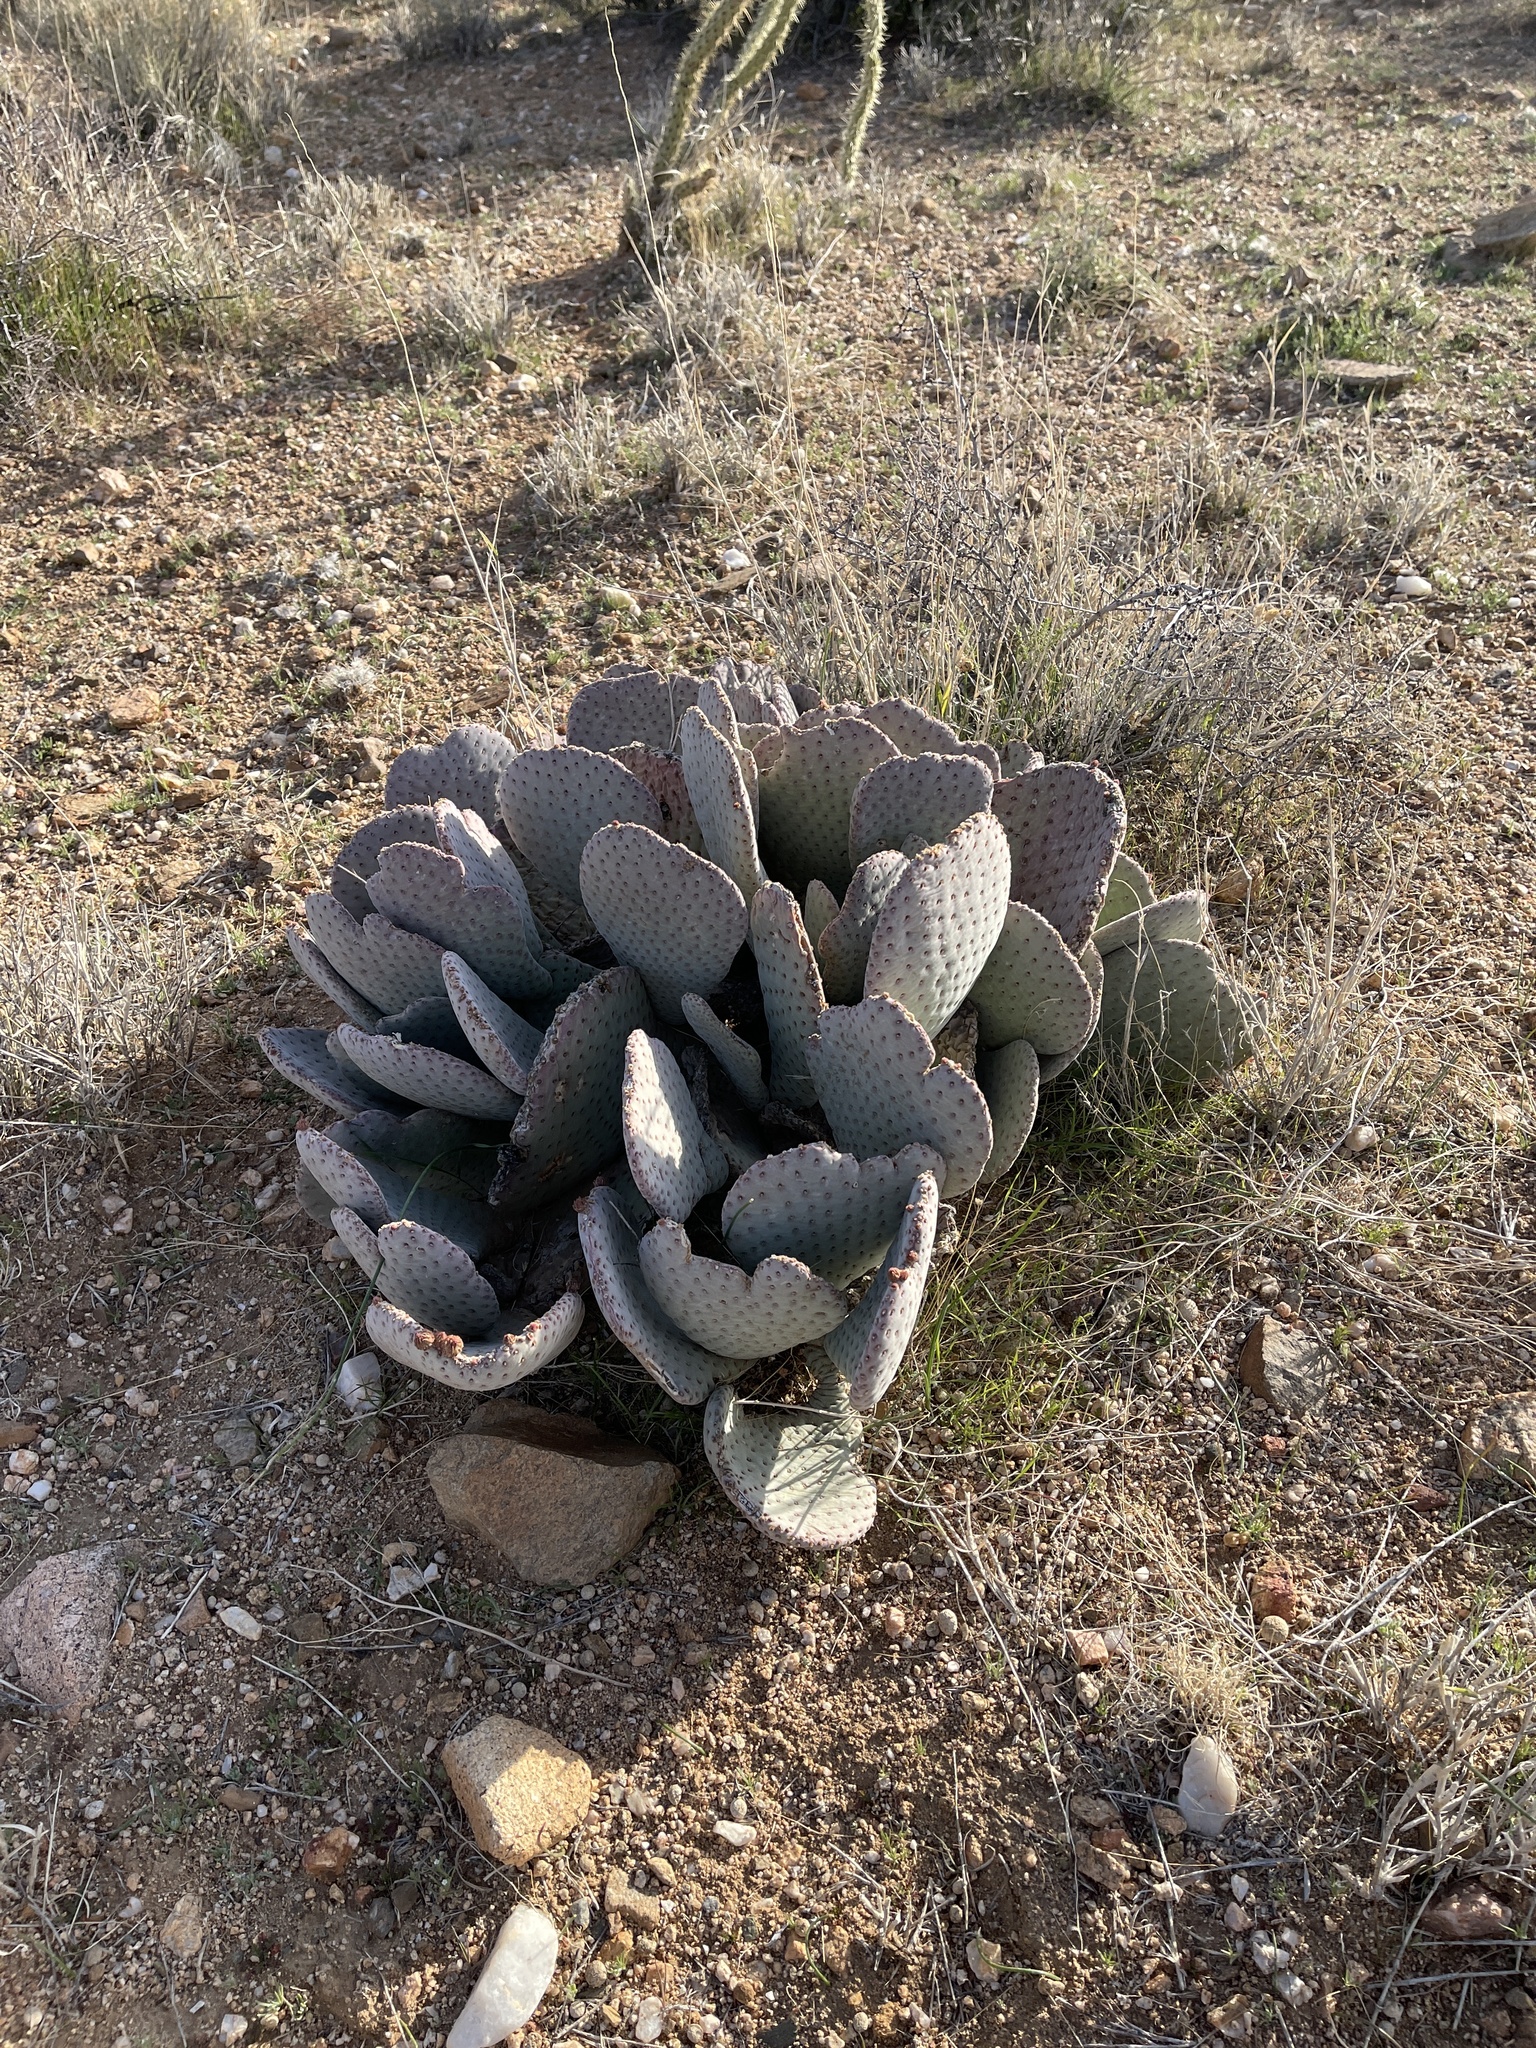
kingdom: Plantae
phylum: Tracheophyta
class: Magnoliopsida
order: Caryophyllales
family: Cactaceae
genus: Opuntia
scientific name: Opuntia basilaris
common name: Beavertail prickly-pear
